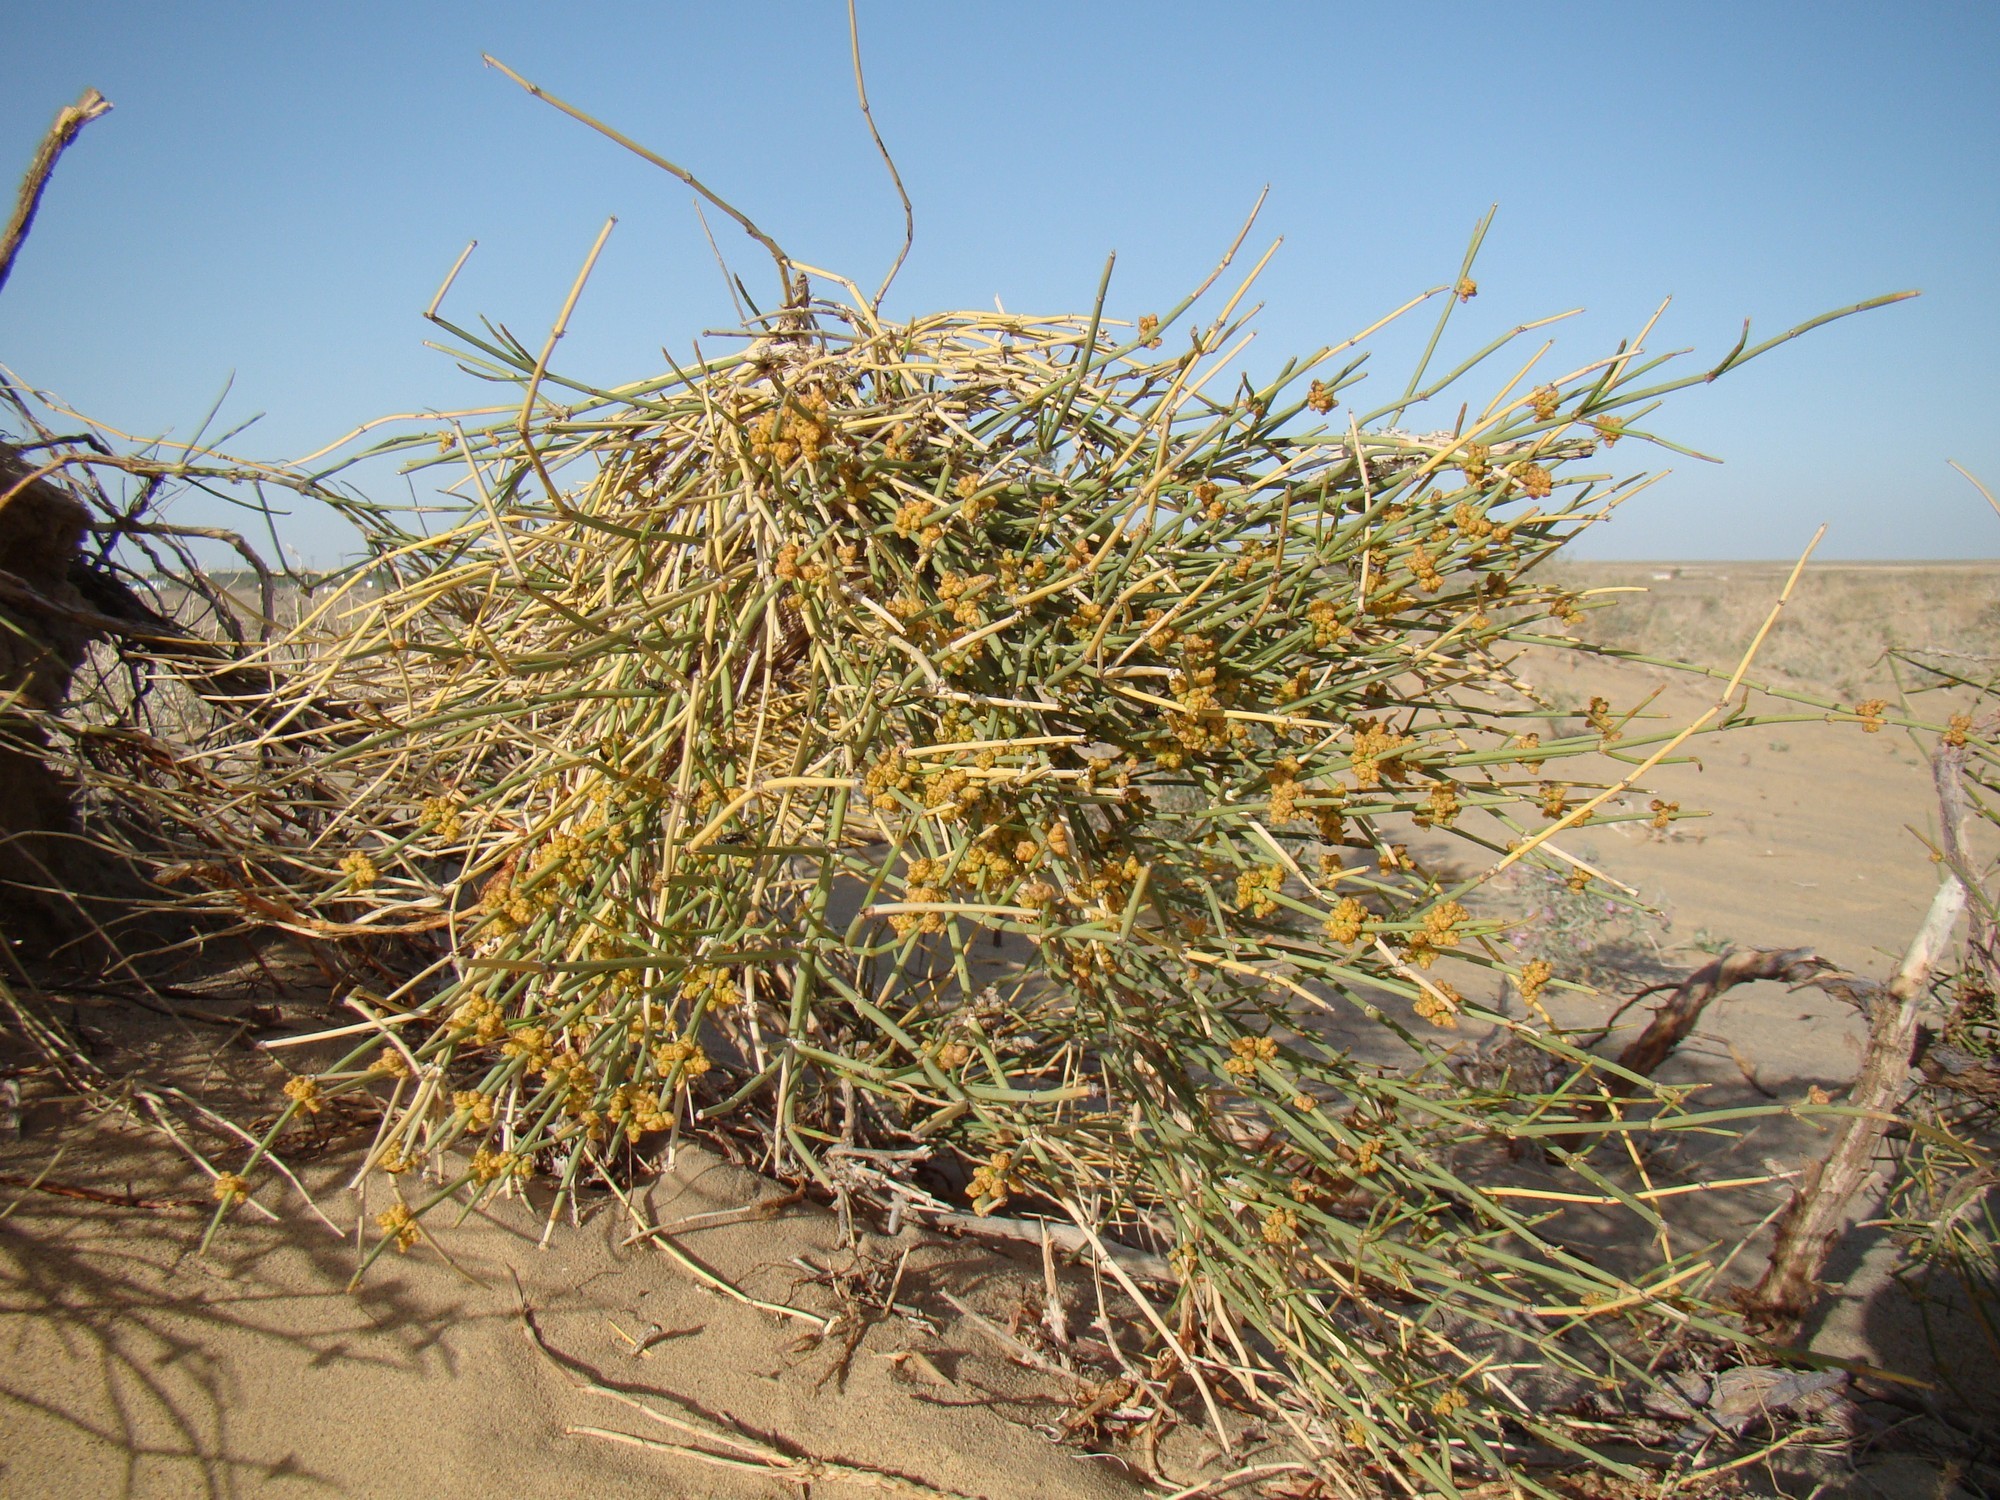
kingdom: Plantae
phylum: Tracheophyta
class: Gnetopsida
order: Ephedrales
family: Ephedraceae
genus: Ephedra
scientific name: Ephedra intermedia
